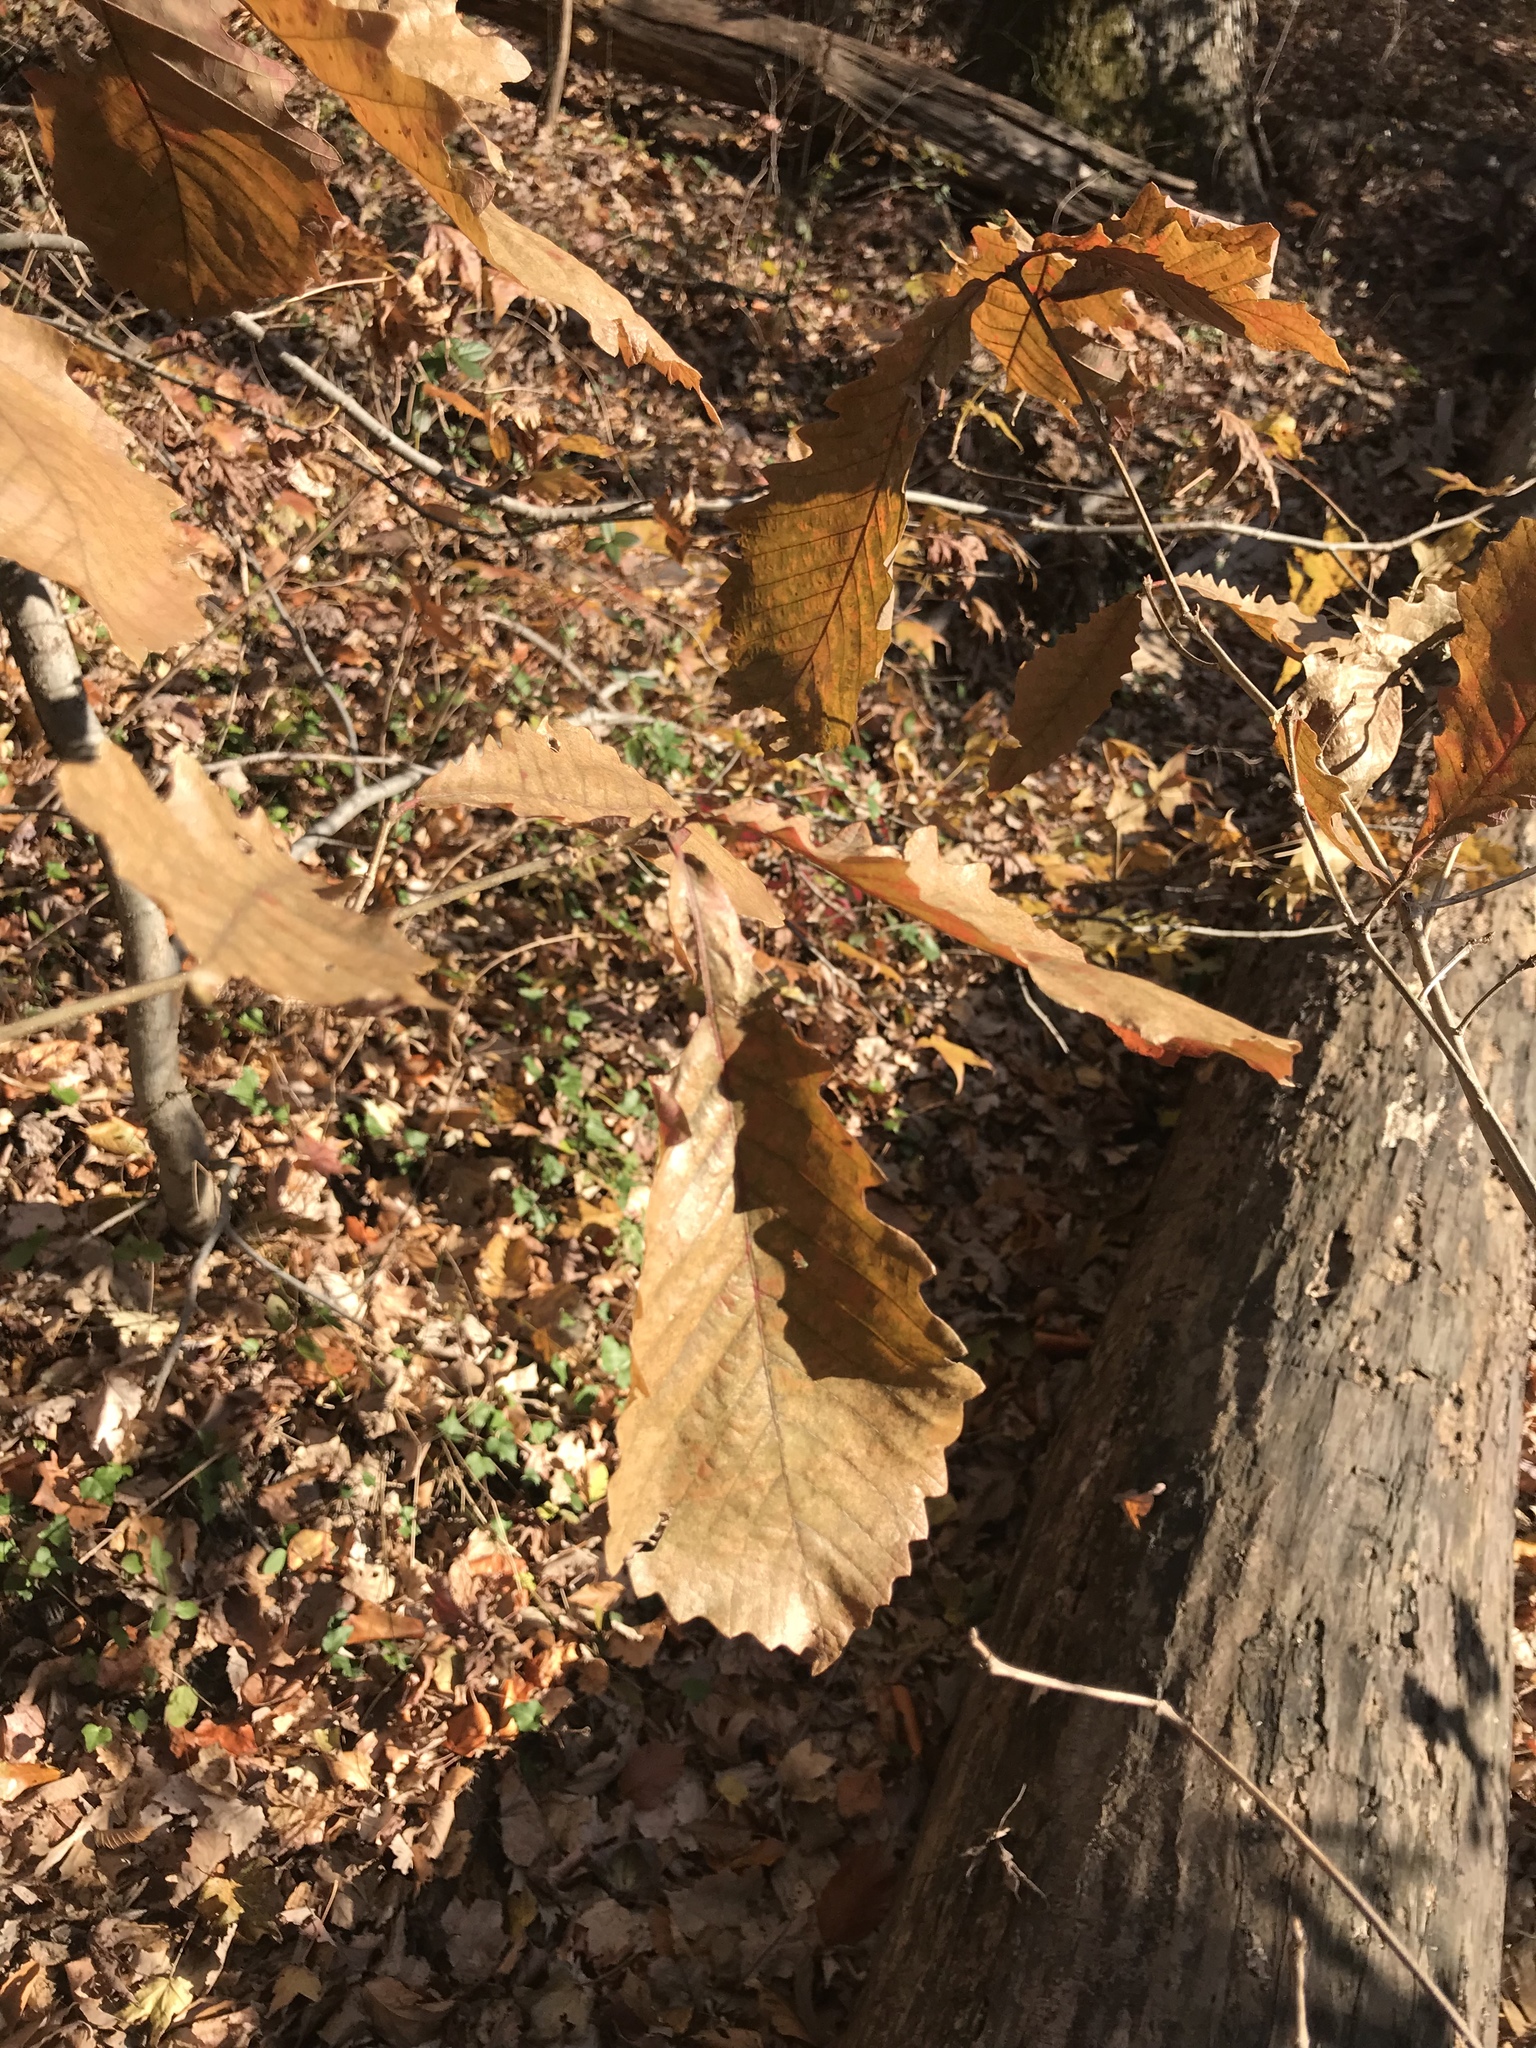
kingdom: Plantae
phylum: Tracheophyta
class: Magnoliopsida
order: Fagales
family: Fagaceae
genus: Quercus
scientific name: Quercus muehlenbergii
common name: Chinkapin oak
